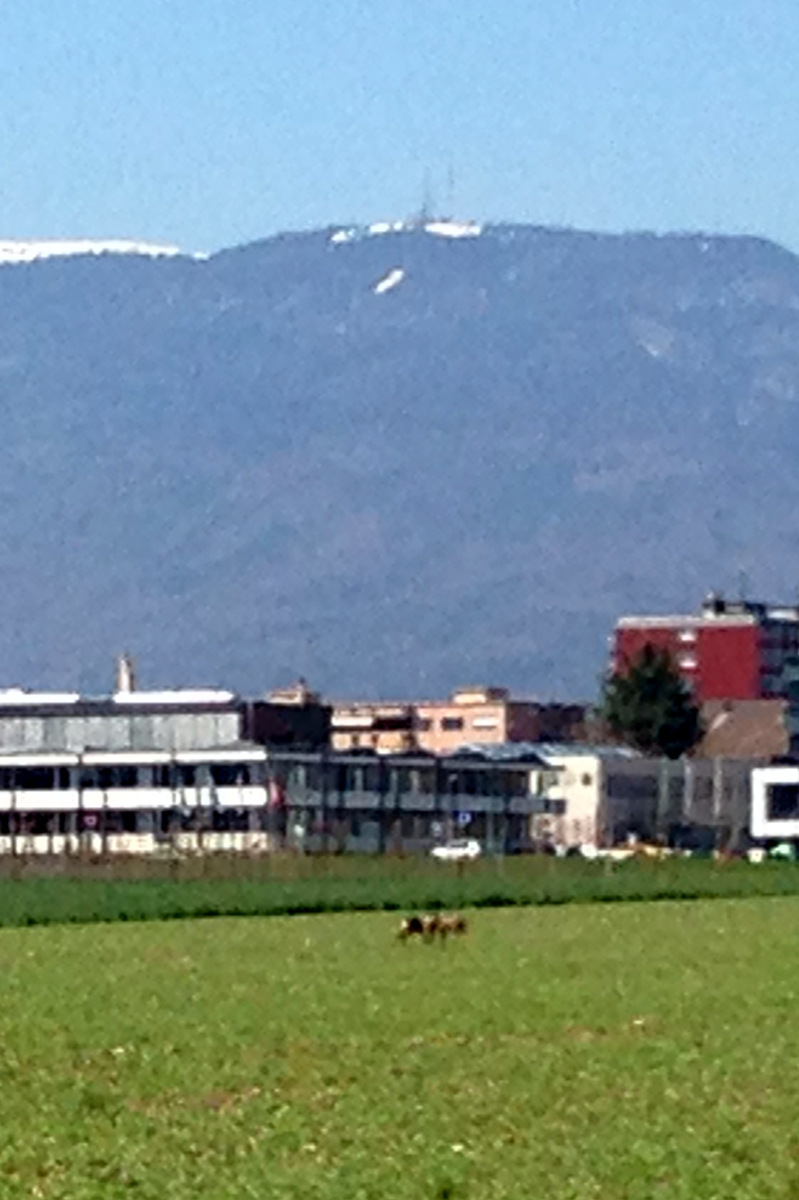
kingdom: Animalia
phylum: Chordata
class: Mammalia
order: Artiodactyla
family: Cervidae
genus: Capreolus
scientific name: Capreolus capreolus
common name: Western roe deer
